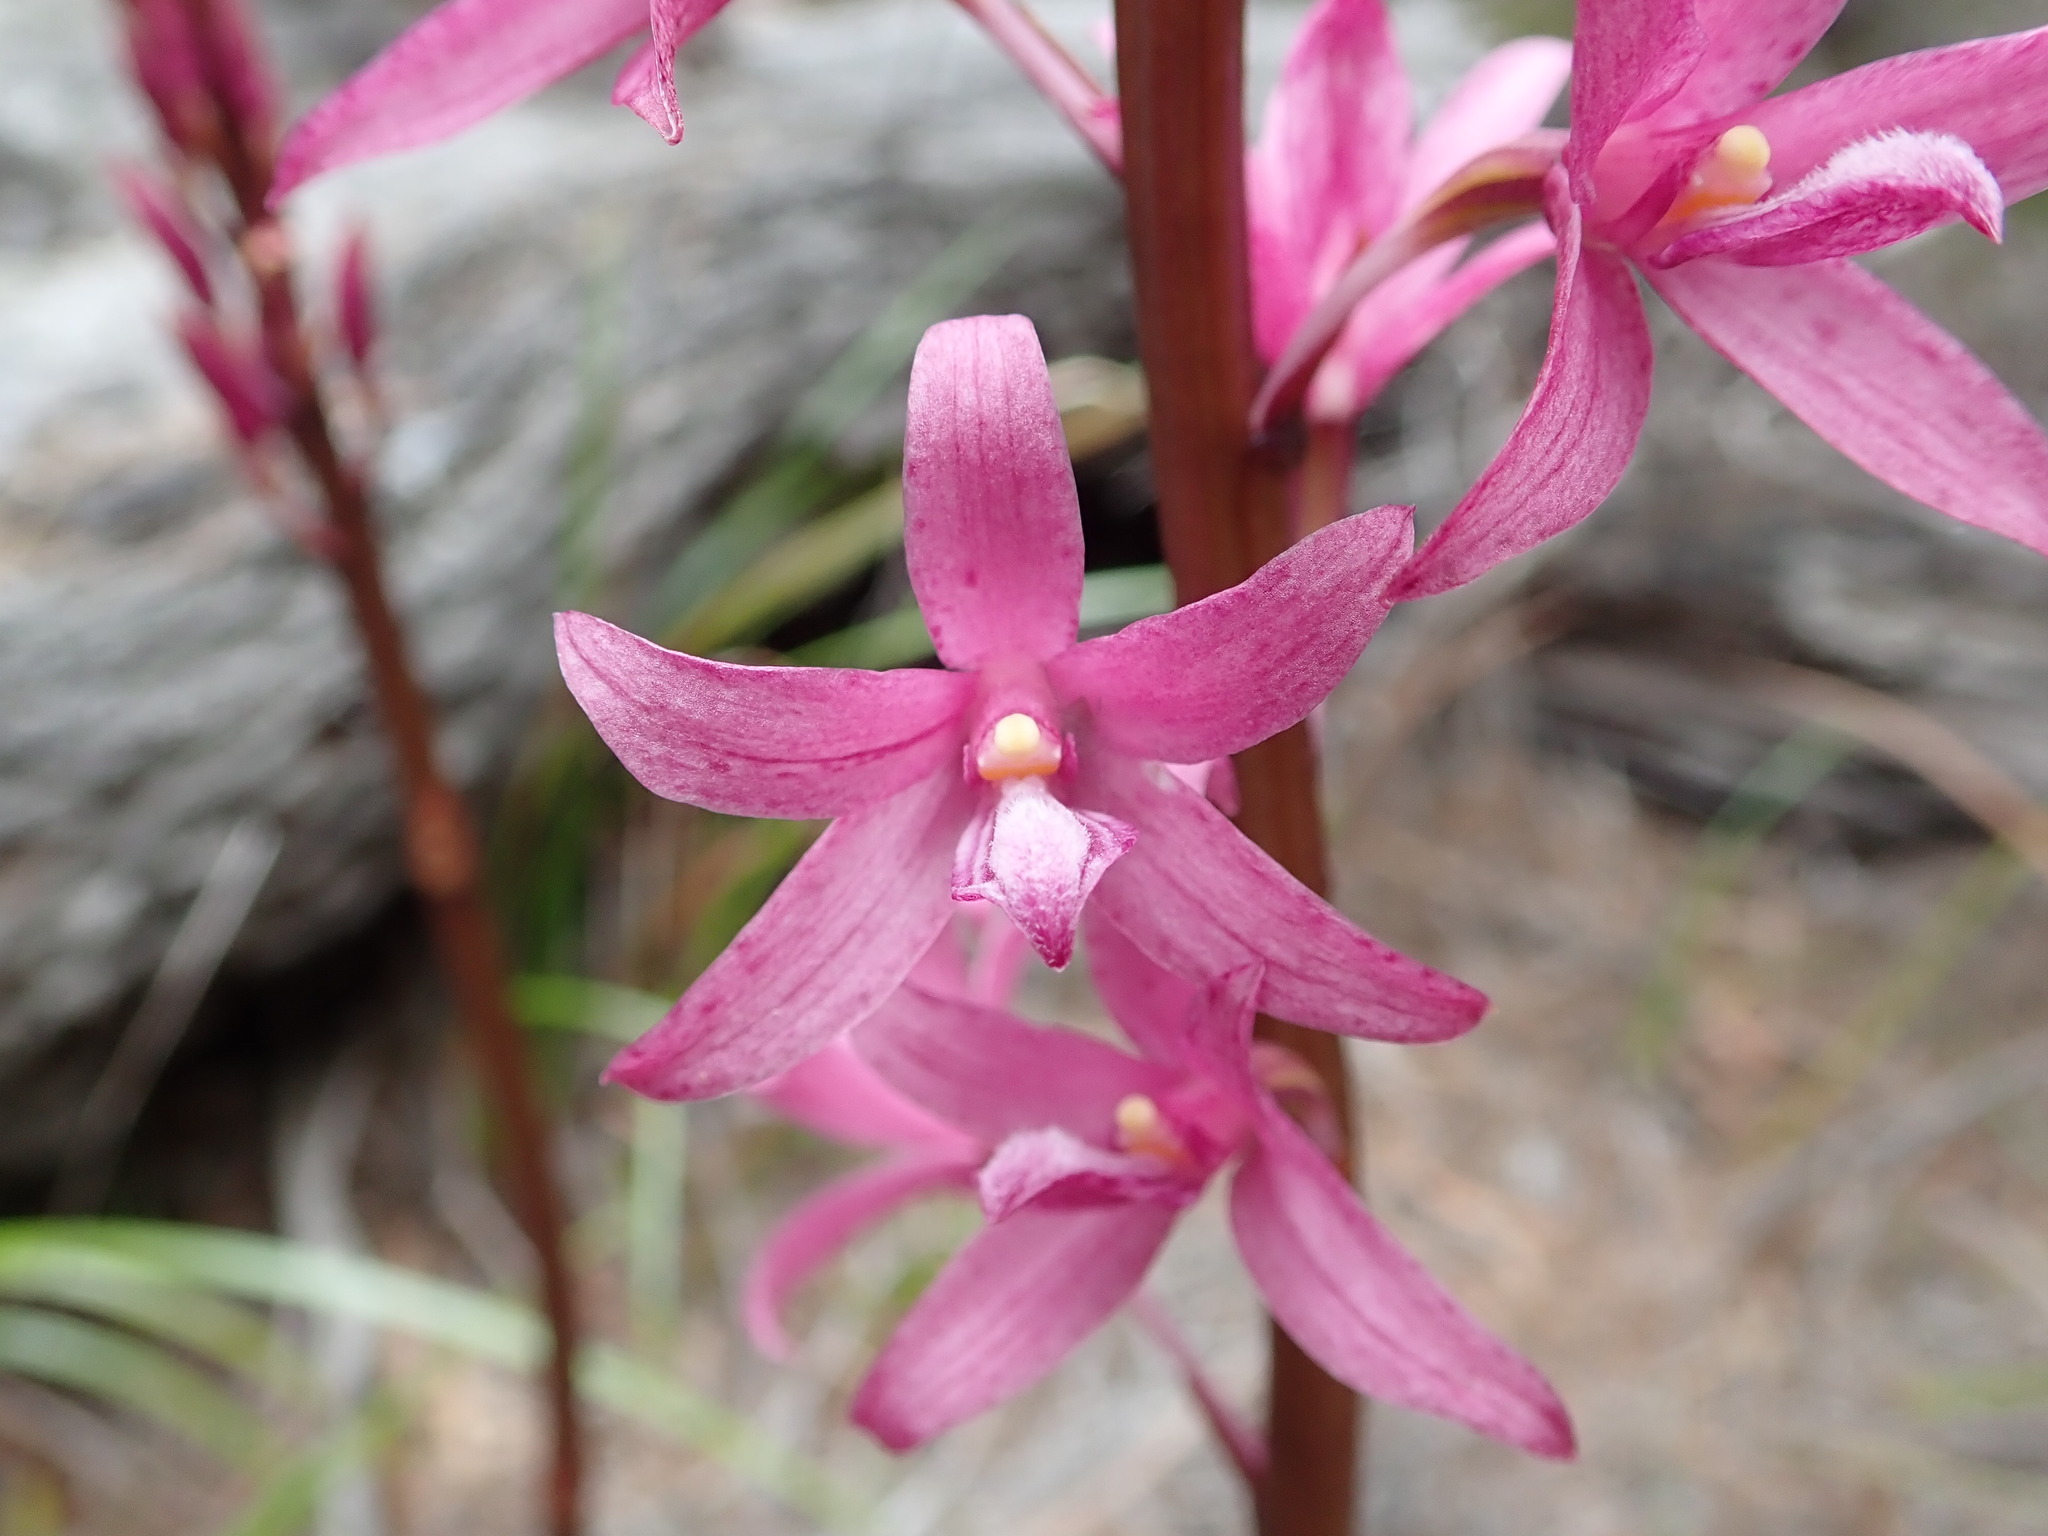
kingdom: Plantae
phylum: Tracheophyta
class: Liliopsida
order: Asparagales
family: Orchidaceae
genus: Dipodium
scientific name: Dipodium roseum
